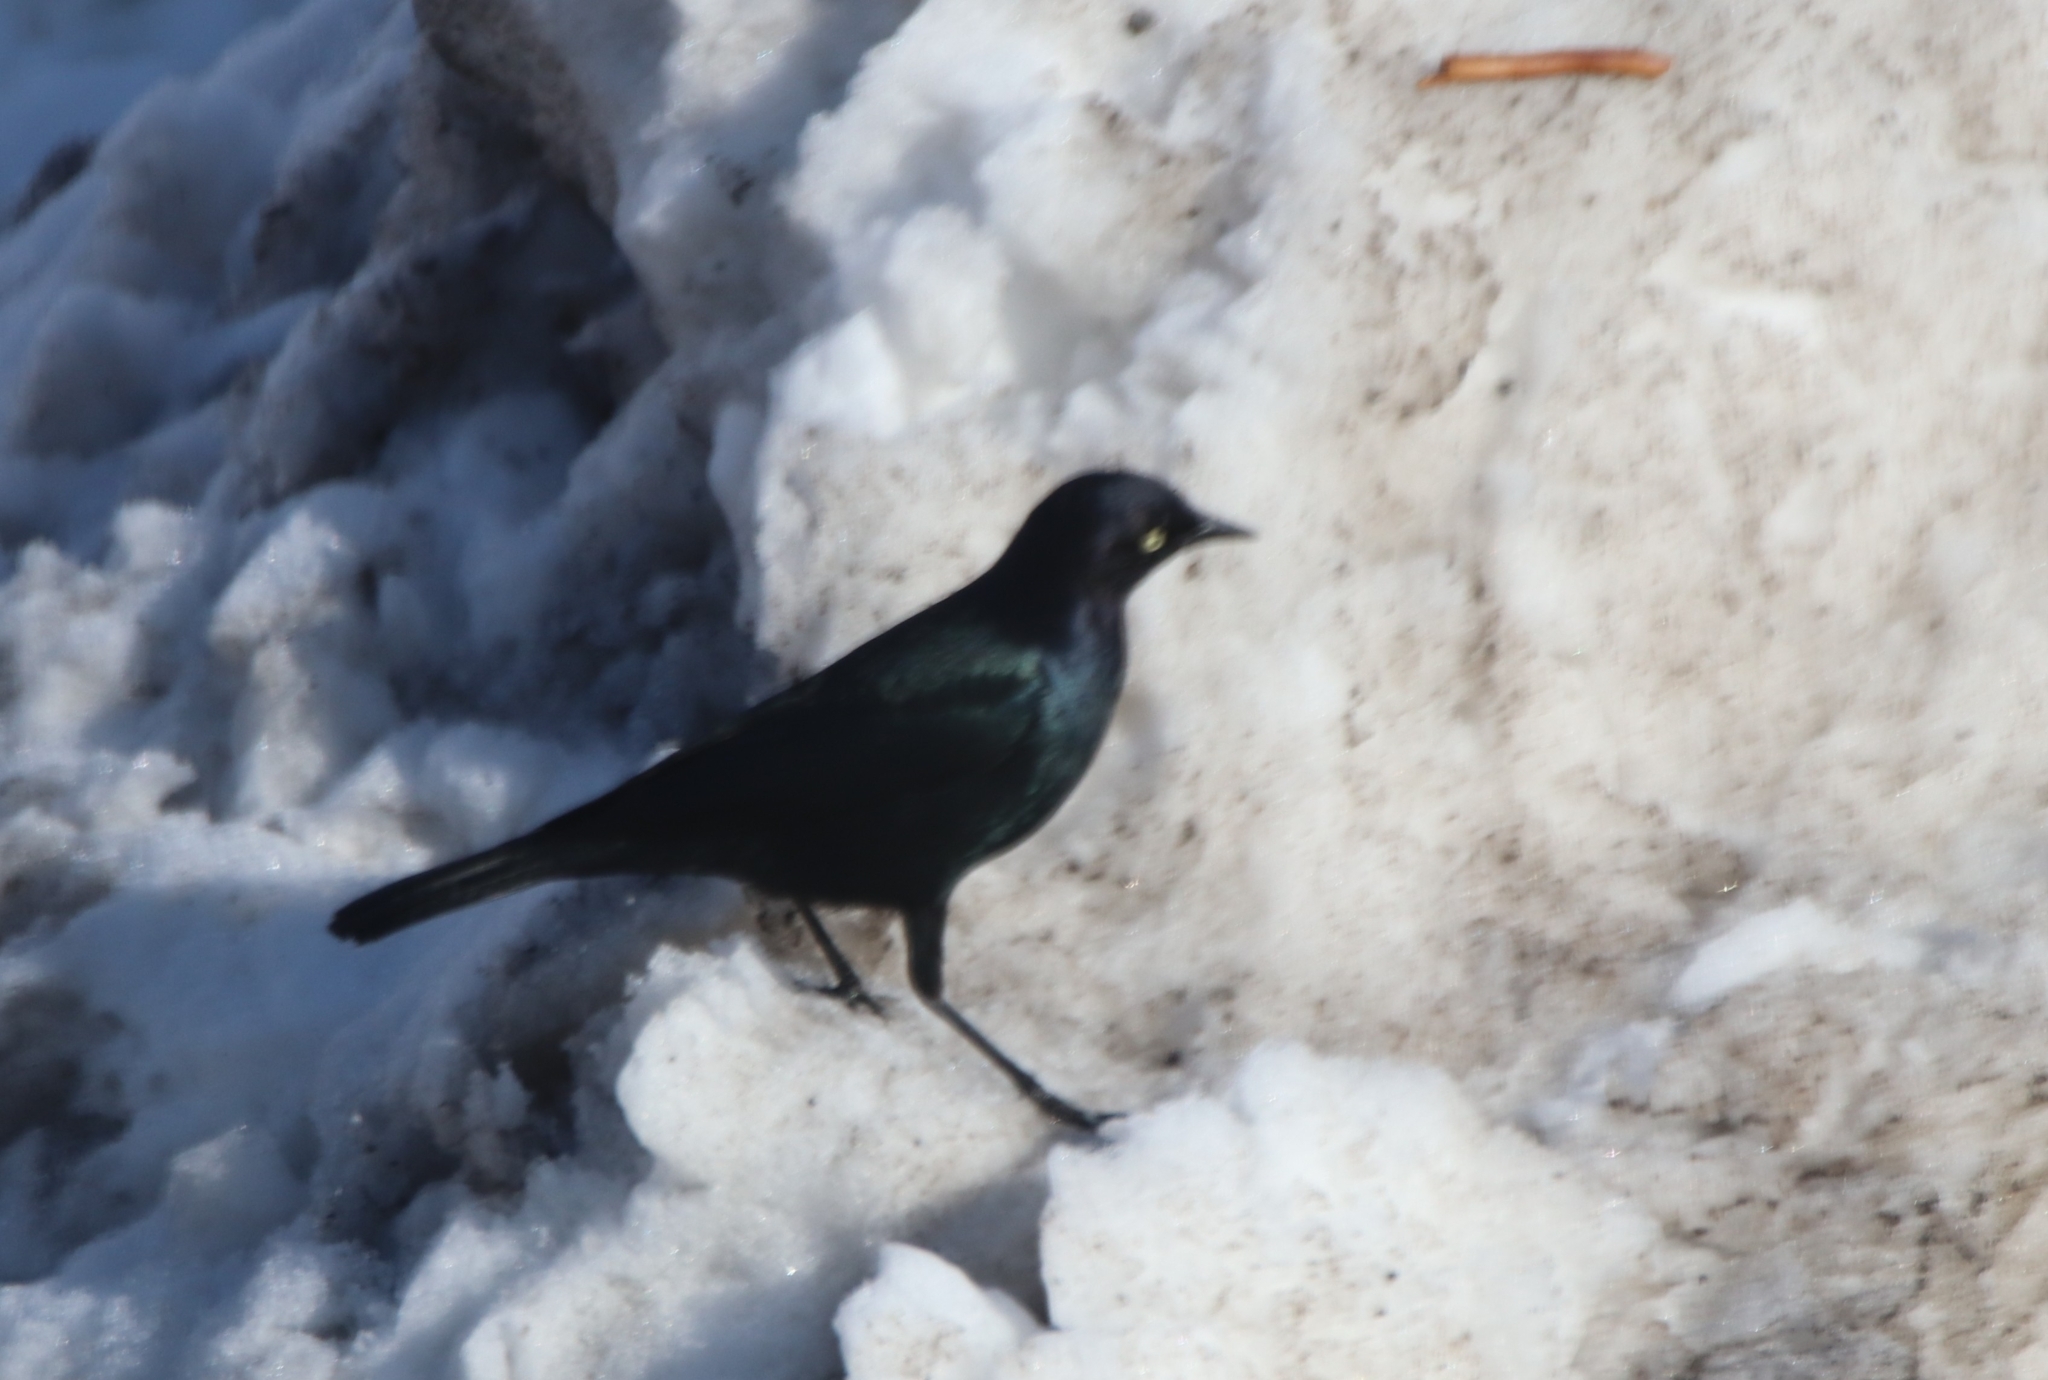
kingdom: Animalia
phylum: Chordata
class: Aves
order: Passeriformes
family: Icteridae
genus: Euphagus
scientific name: Euphagus cyanocephalus
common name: Brewer's blackbird
